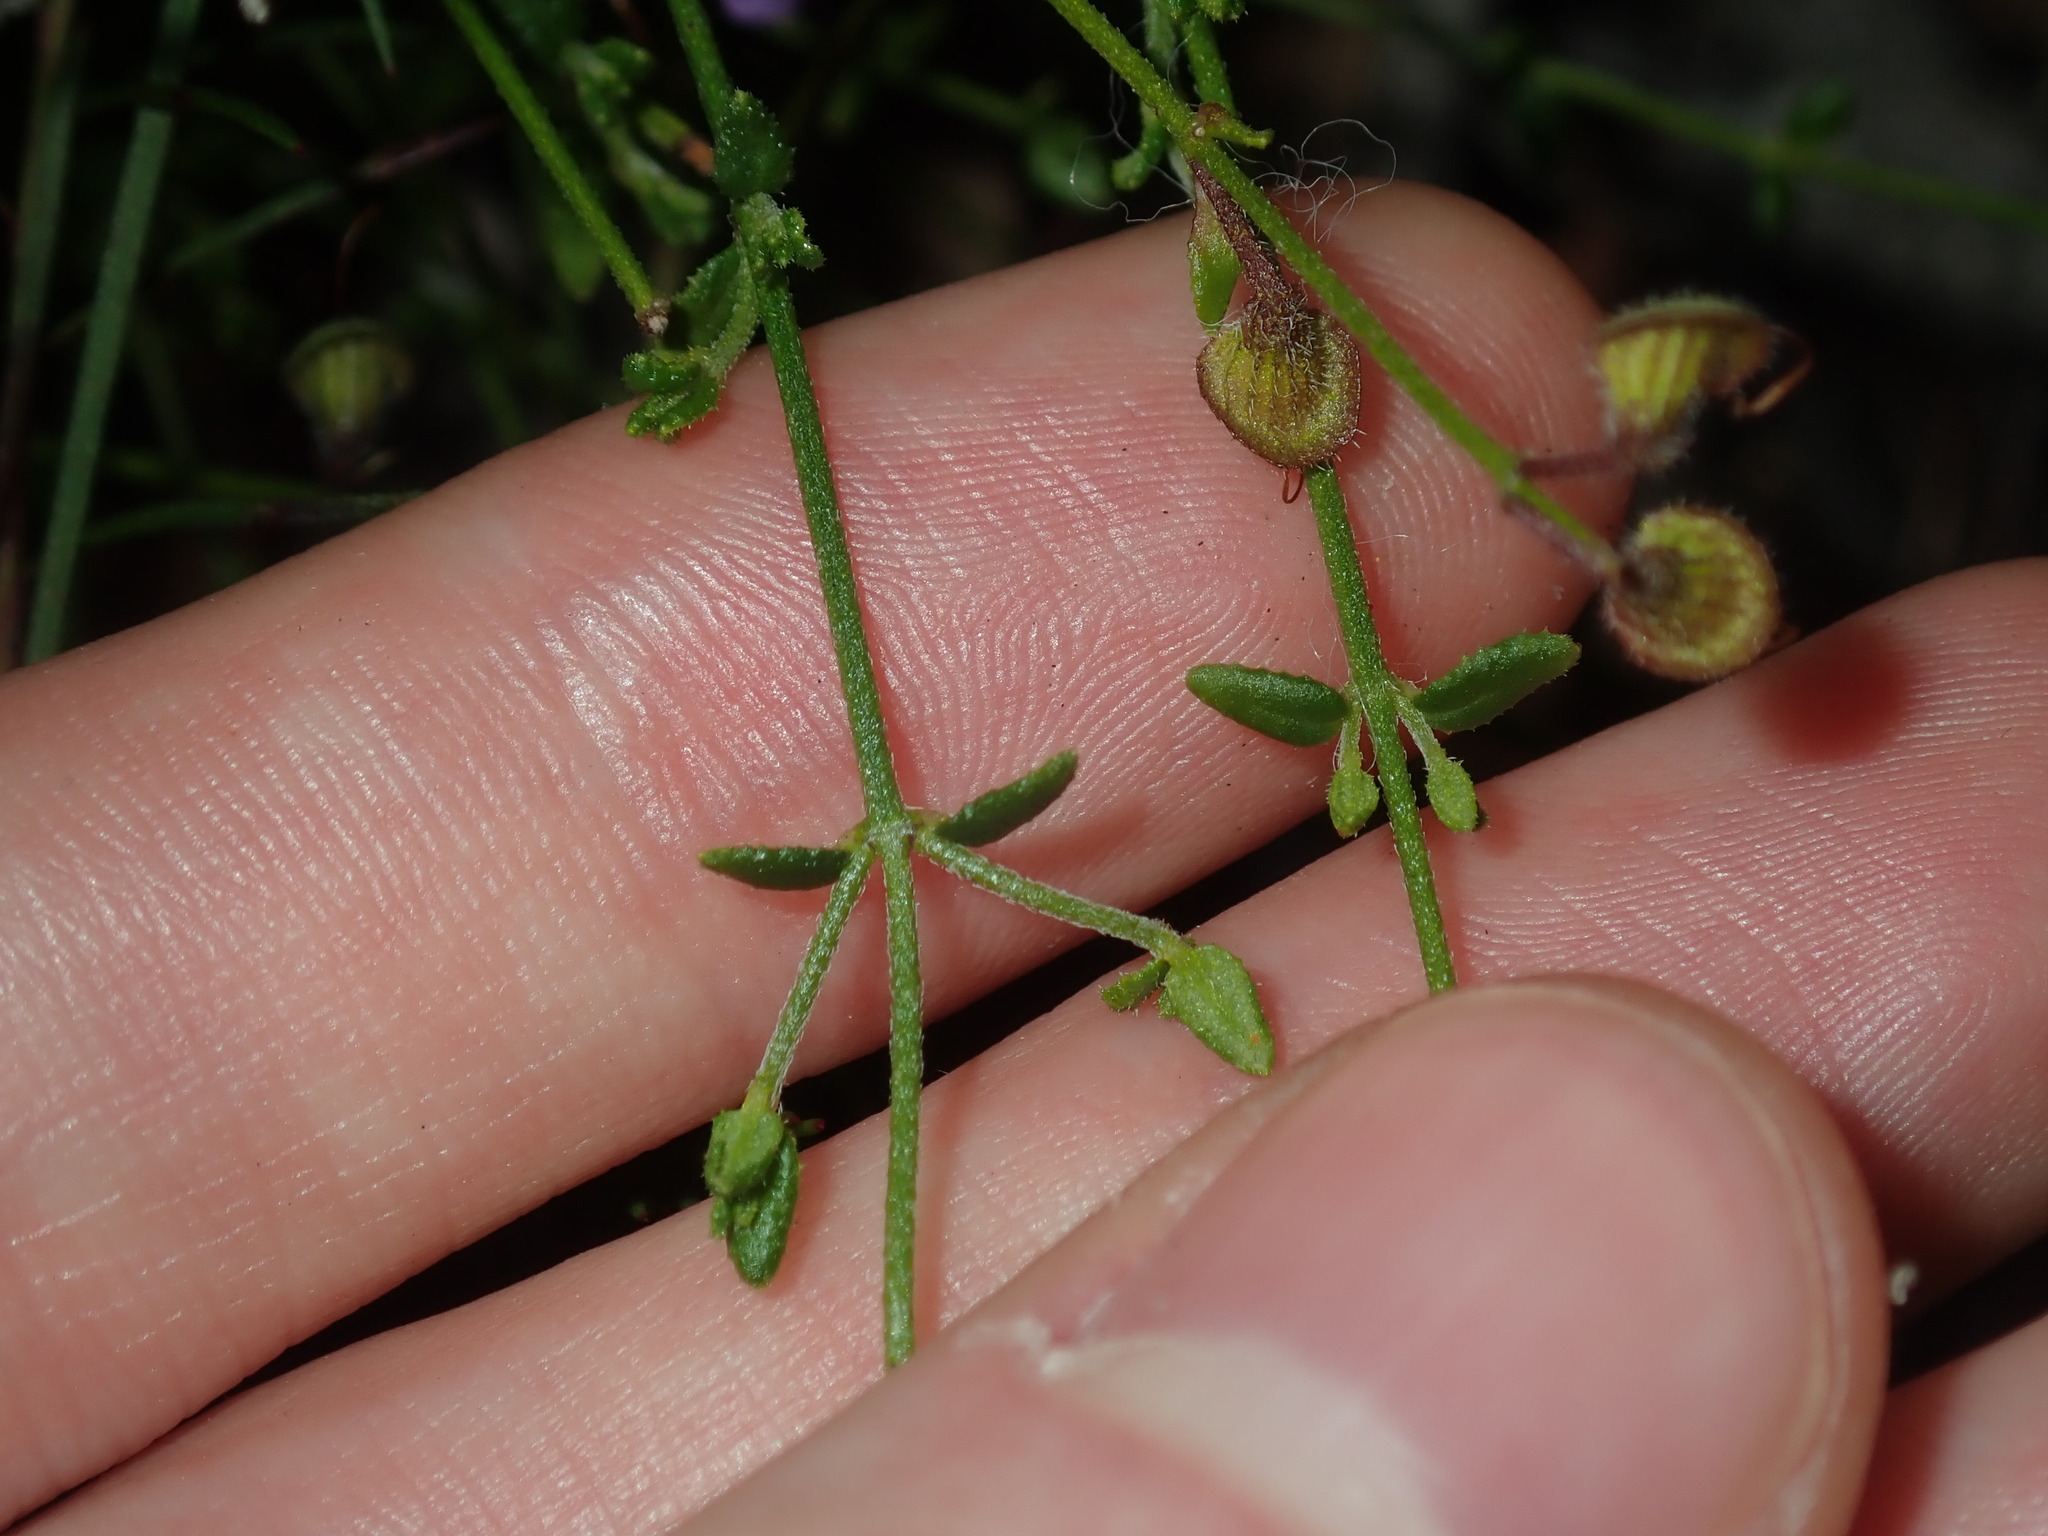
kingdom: Plantae
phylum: Tracheophyta
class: Magnoliopsida
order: Lamiales
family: Lamiaceae
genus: Prostanthera
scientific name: Prostanthera denticulata
